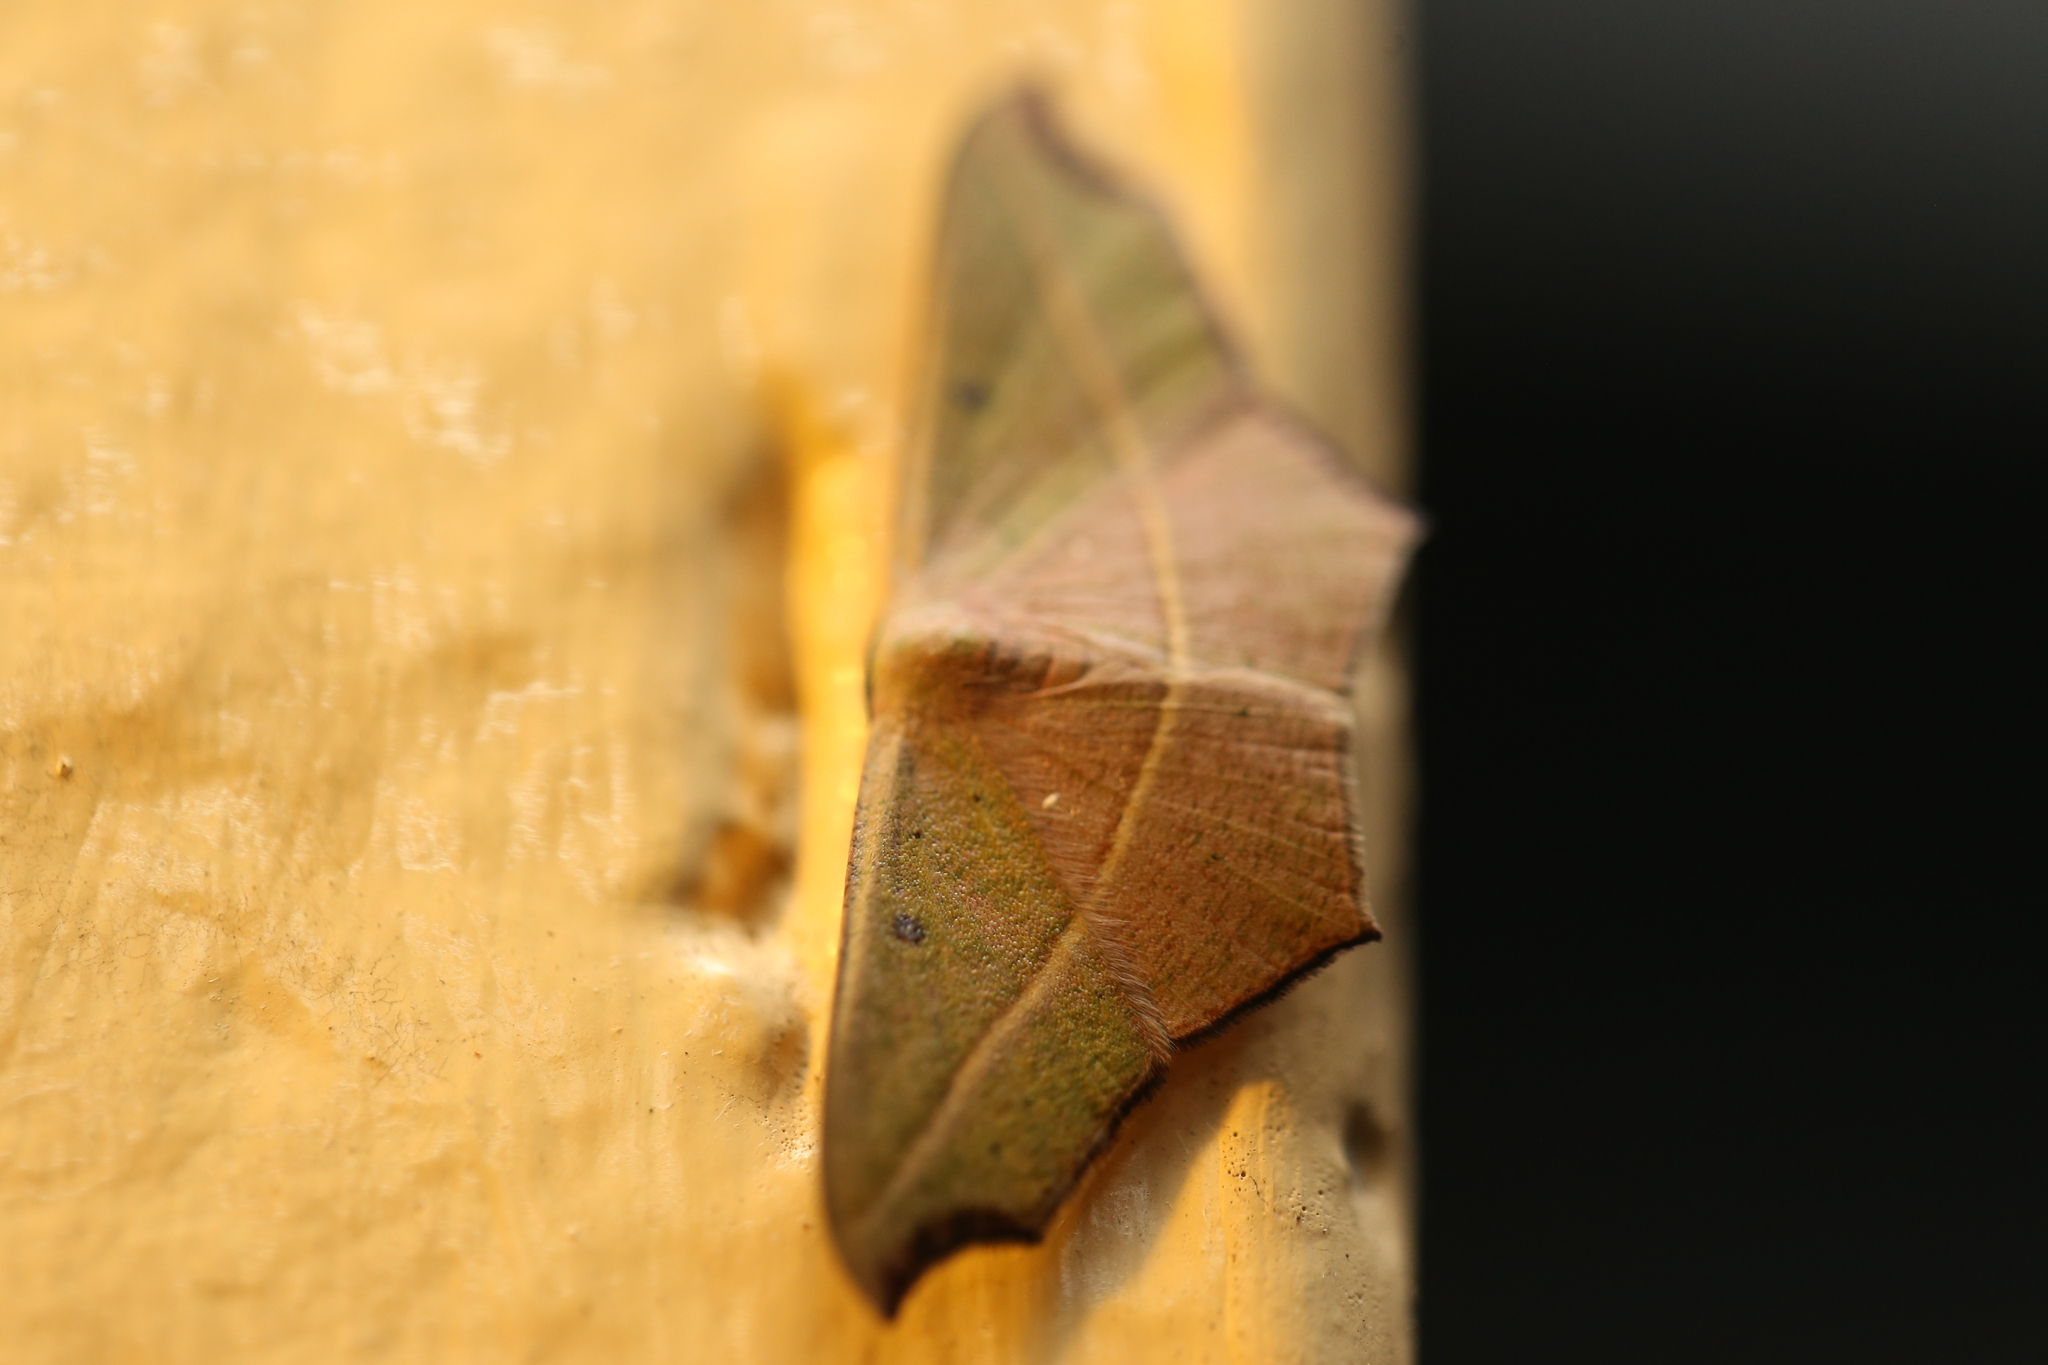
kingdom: Animalia
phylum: Arthropoda
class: Insecta
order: Lepidoptera
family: Geometridae
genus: Traminda
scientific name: Traminda aventiaria
